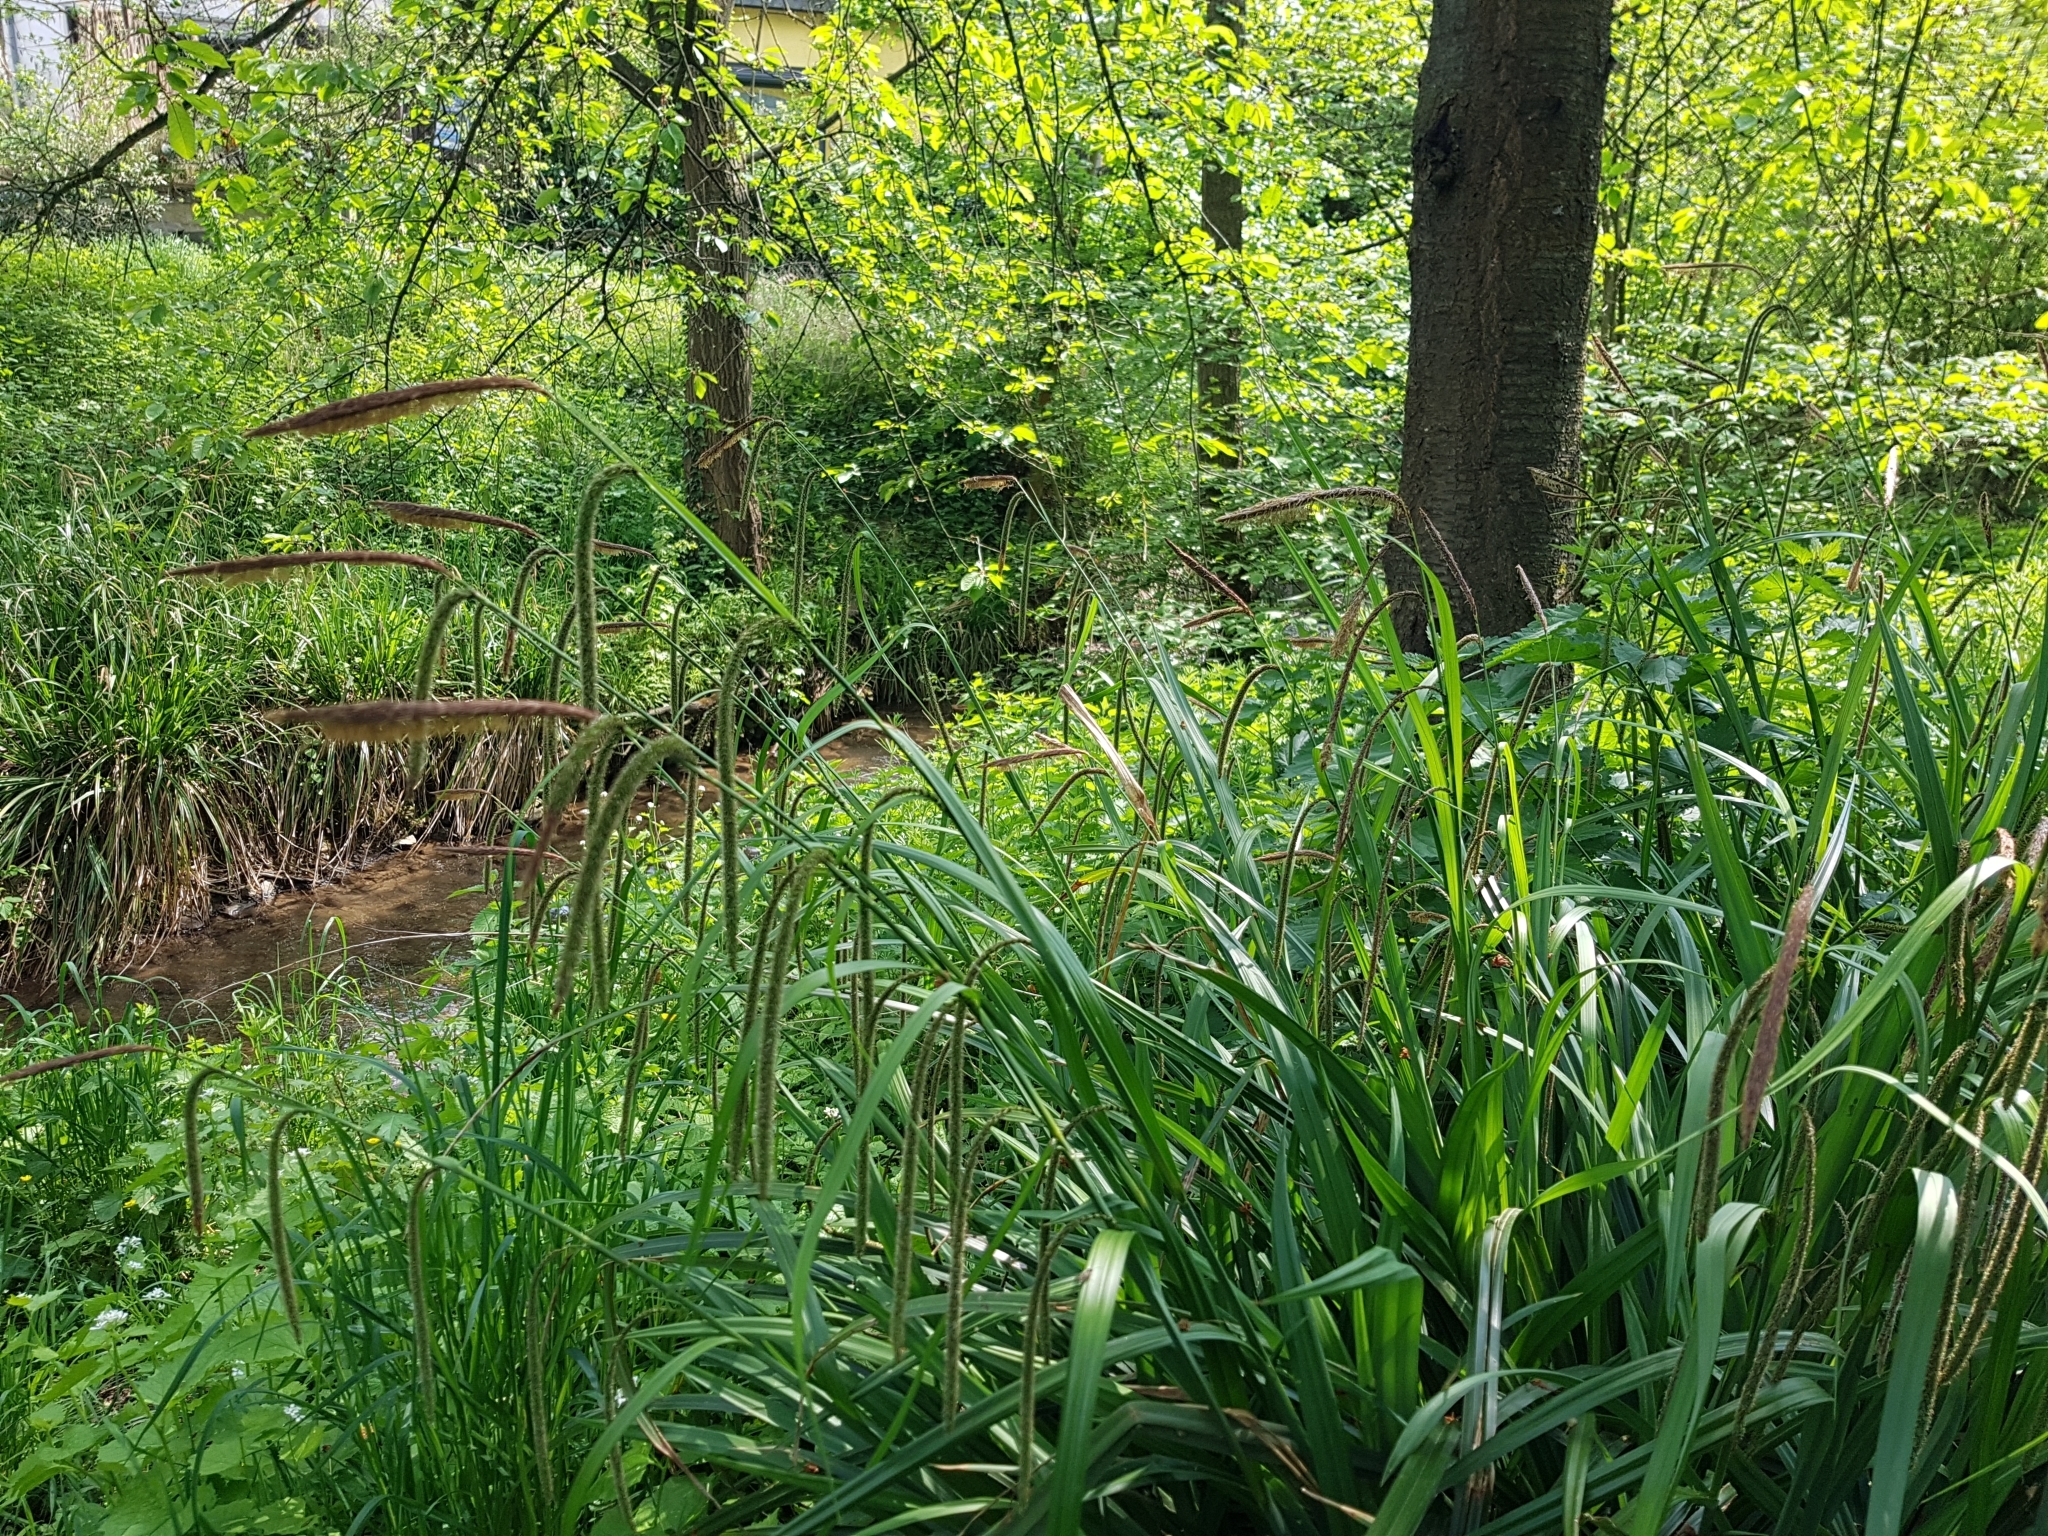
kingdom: Plantae
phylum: Tracheophyta
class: Liliopsida
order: Poales
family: Cyperaceae
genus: Carex
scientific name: Carex pendula
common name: Pendulous sedge
